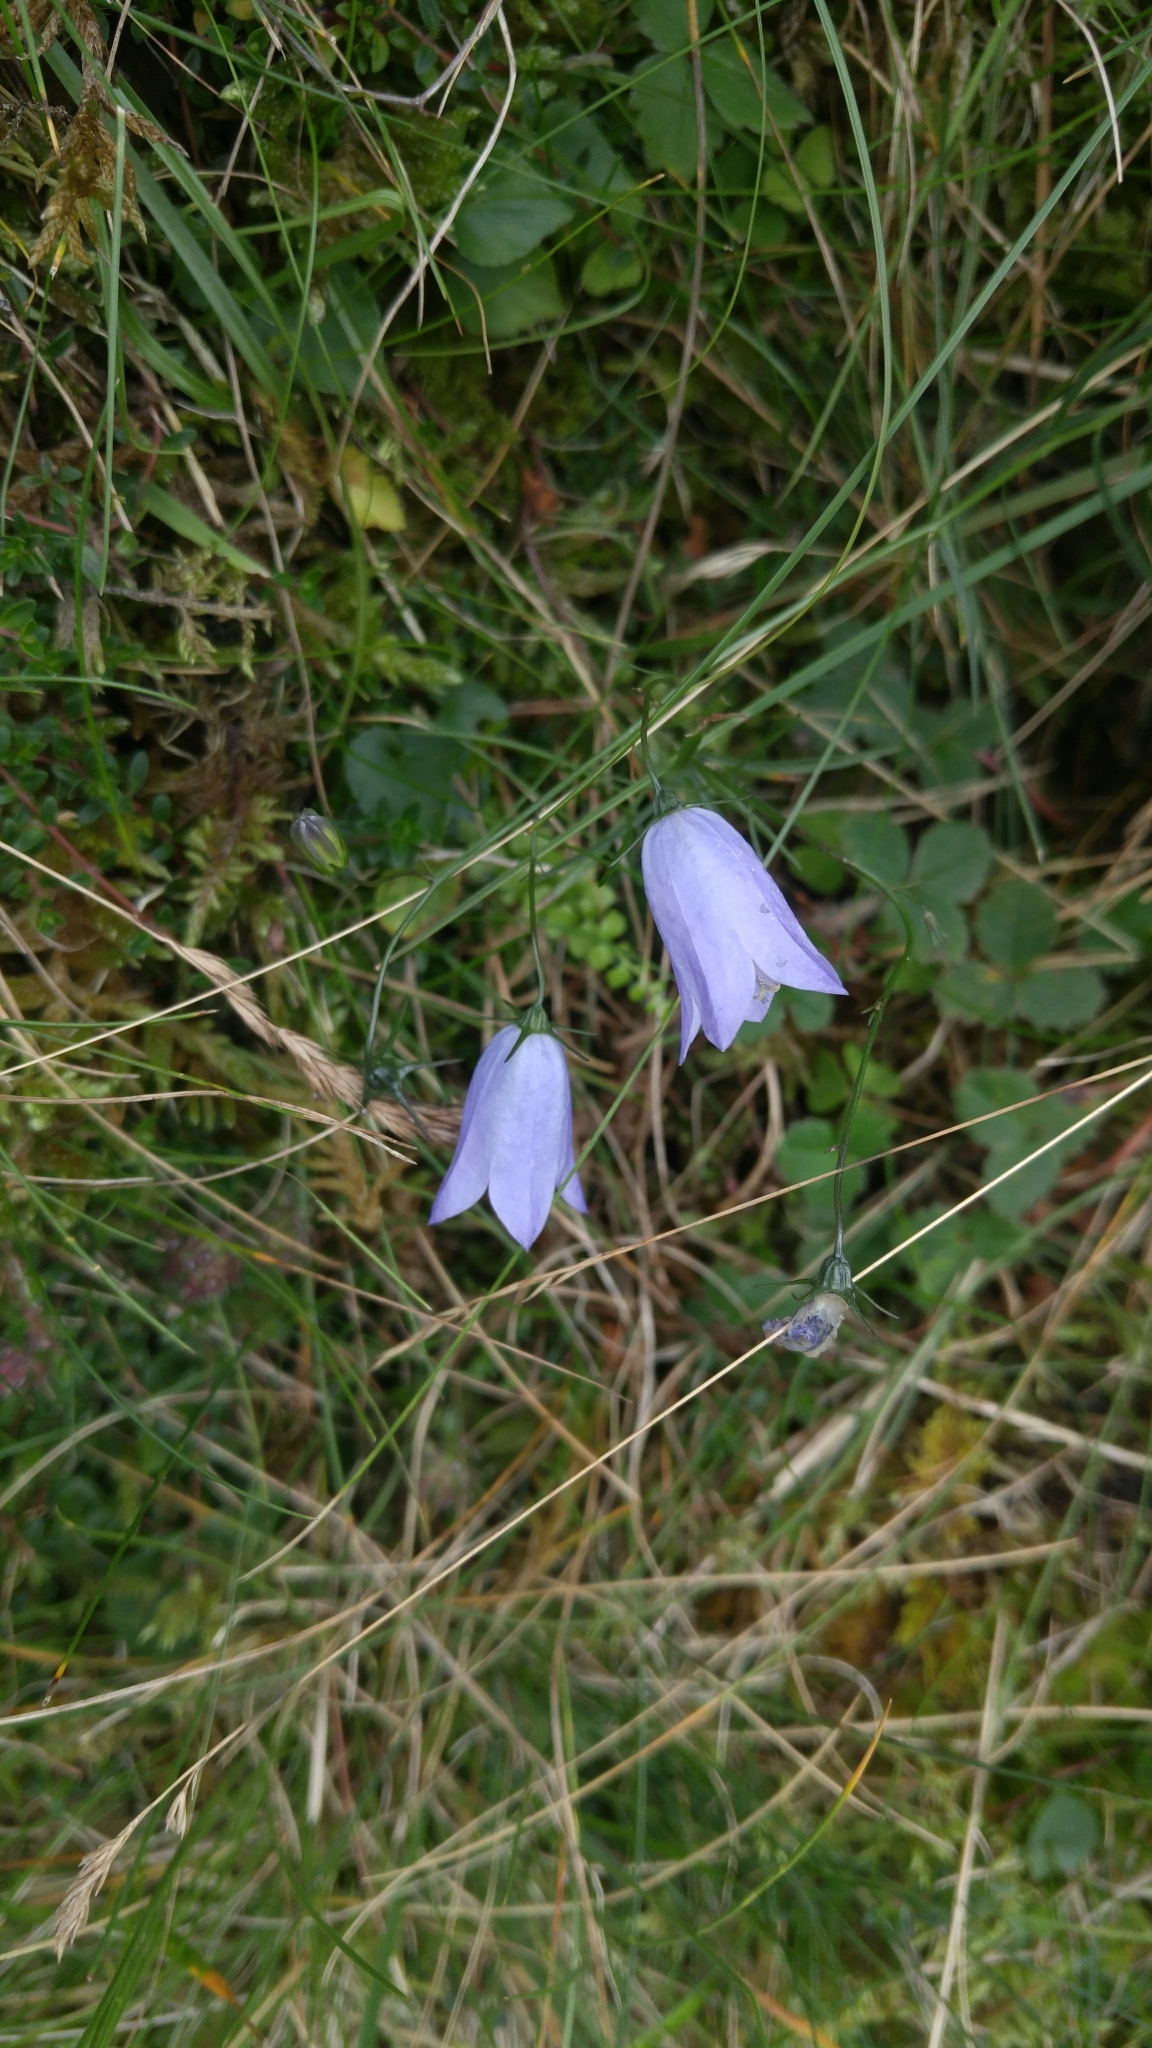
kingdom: Plantae
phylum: Tracheophyta
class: Magnoliopsida
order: Asterales
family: Campanulaceae
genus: Campanula
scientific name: Campanula rotundifolia
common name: Harebell
